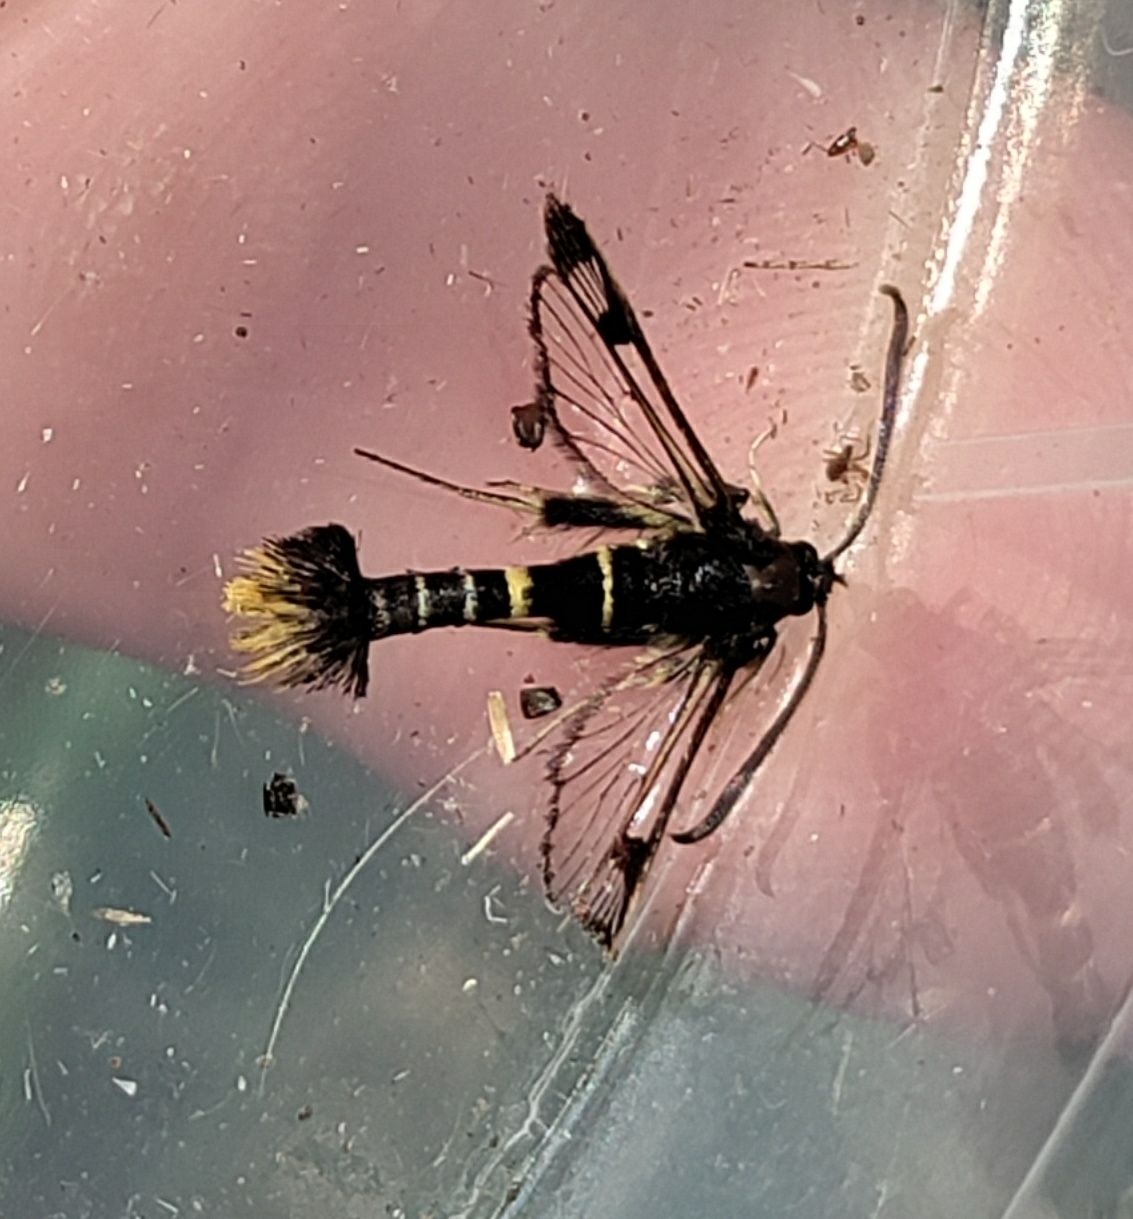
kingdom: Animalia
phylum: Arthropoda
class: Insecta
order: Lepidoptera
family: Sesiidae
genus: Synanthedon
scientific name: Synanthedon andrenaeformis
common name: Orange-tailed clearwing
